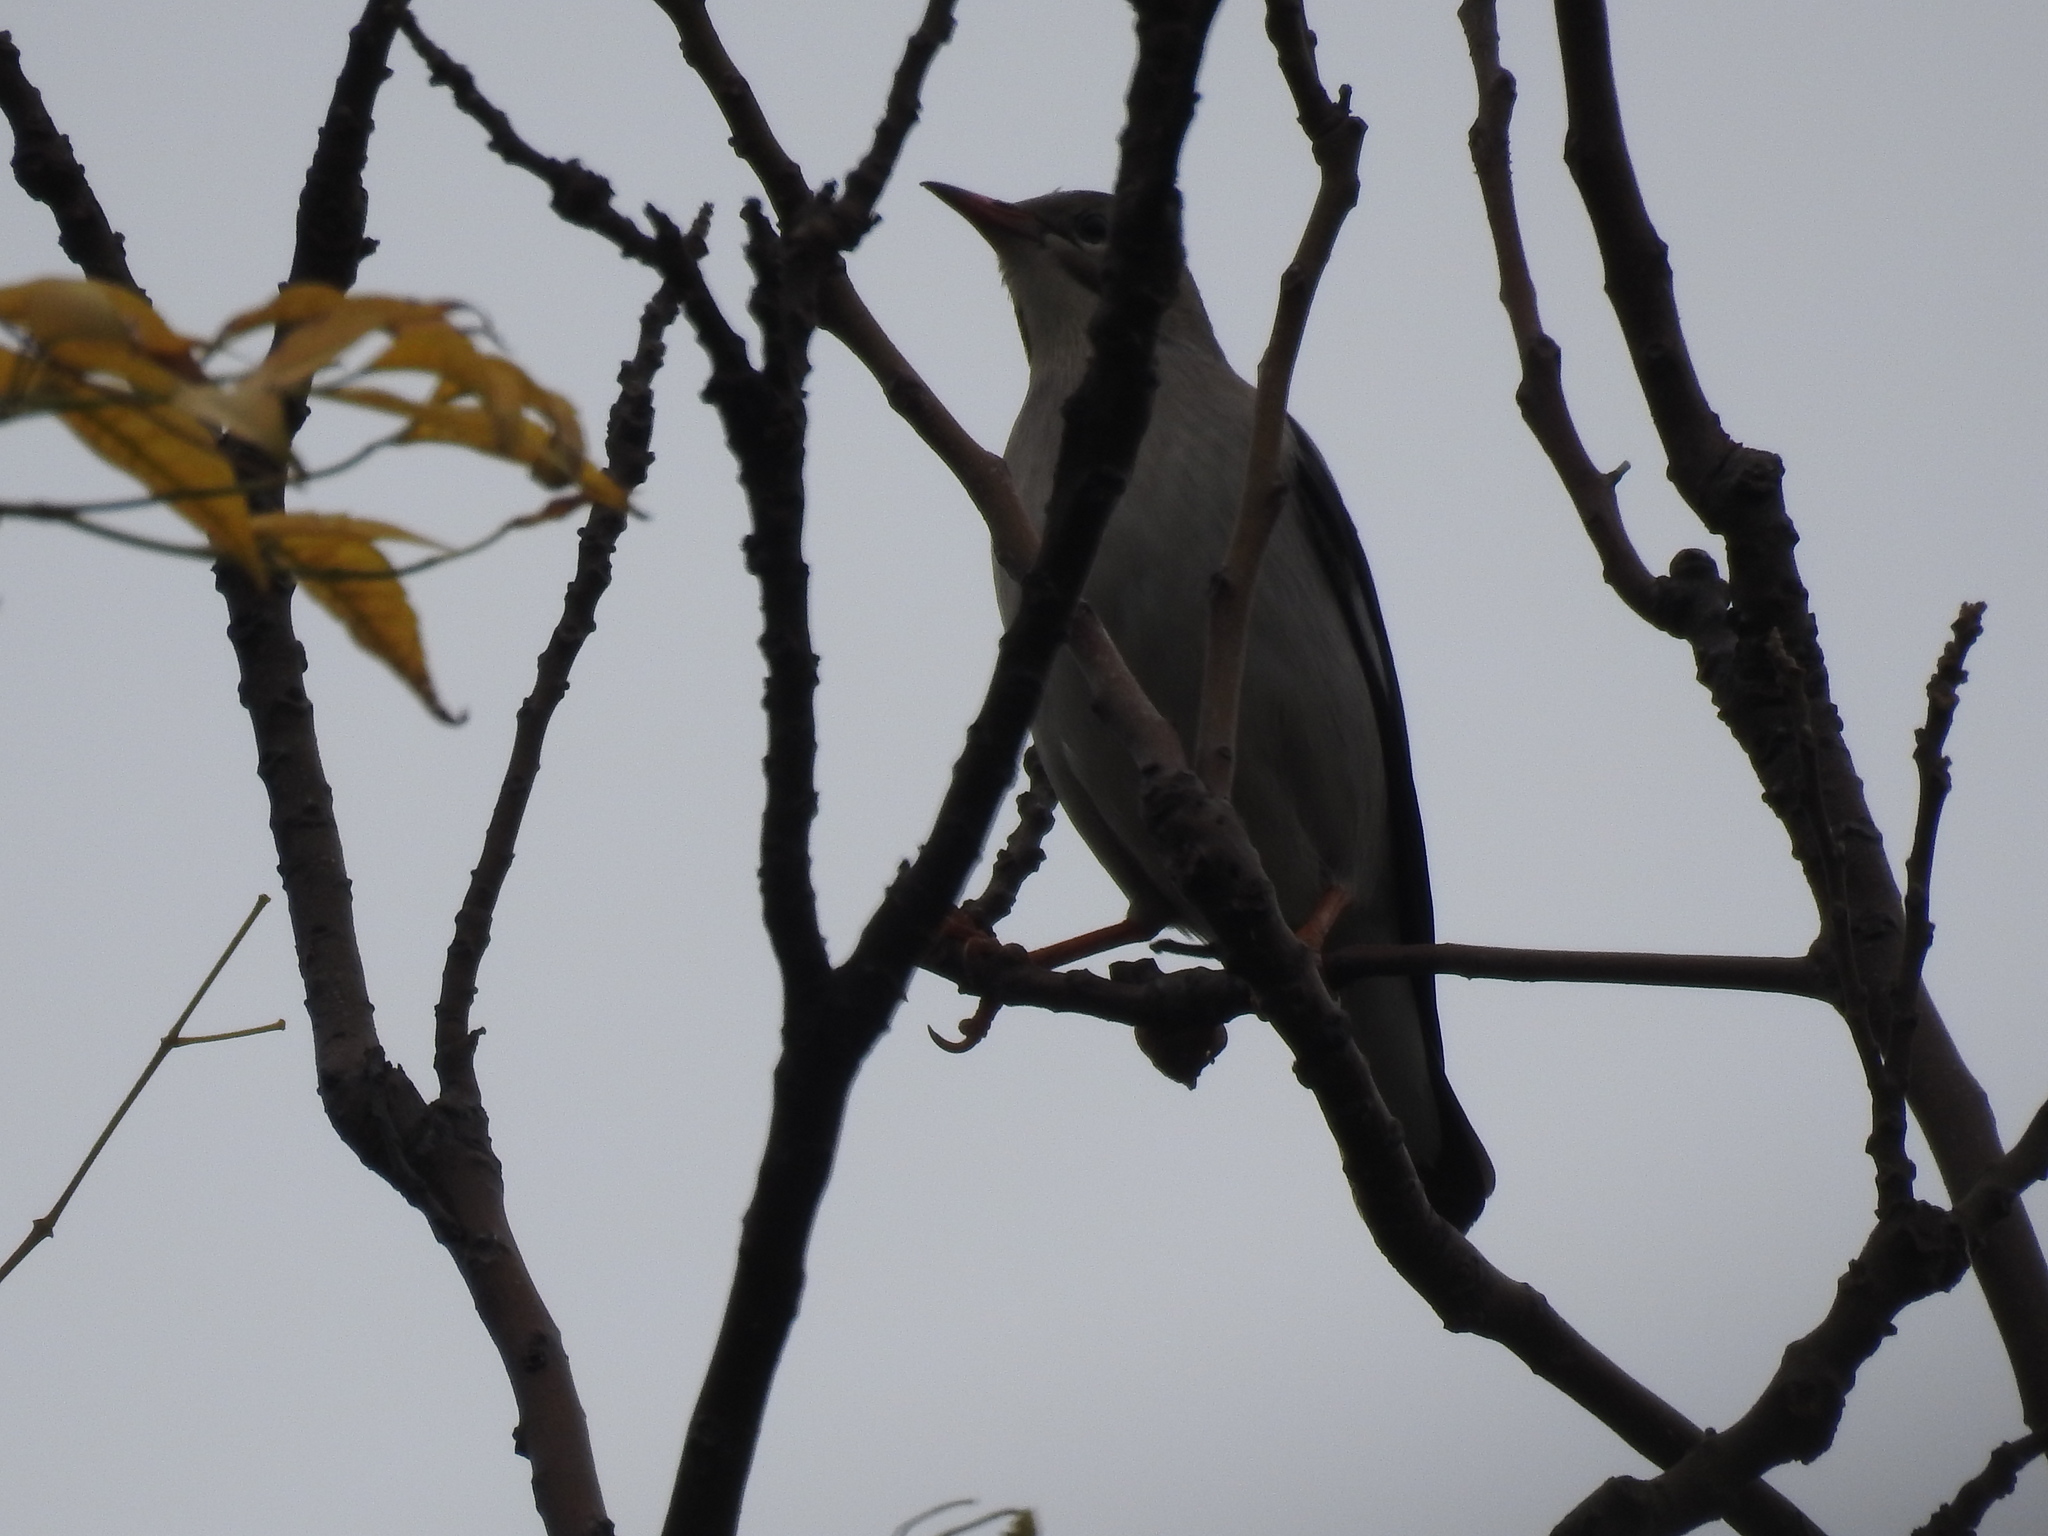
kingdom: Animalia
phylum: Chordata
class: Aves
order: Passeriformes
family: Sturnidae
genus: Spodiopsar
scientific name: Spodiopsar sericeus
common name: Red-billed starling
